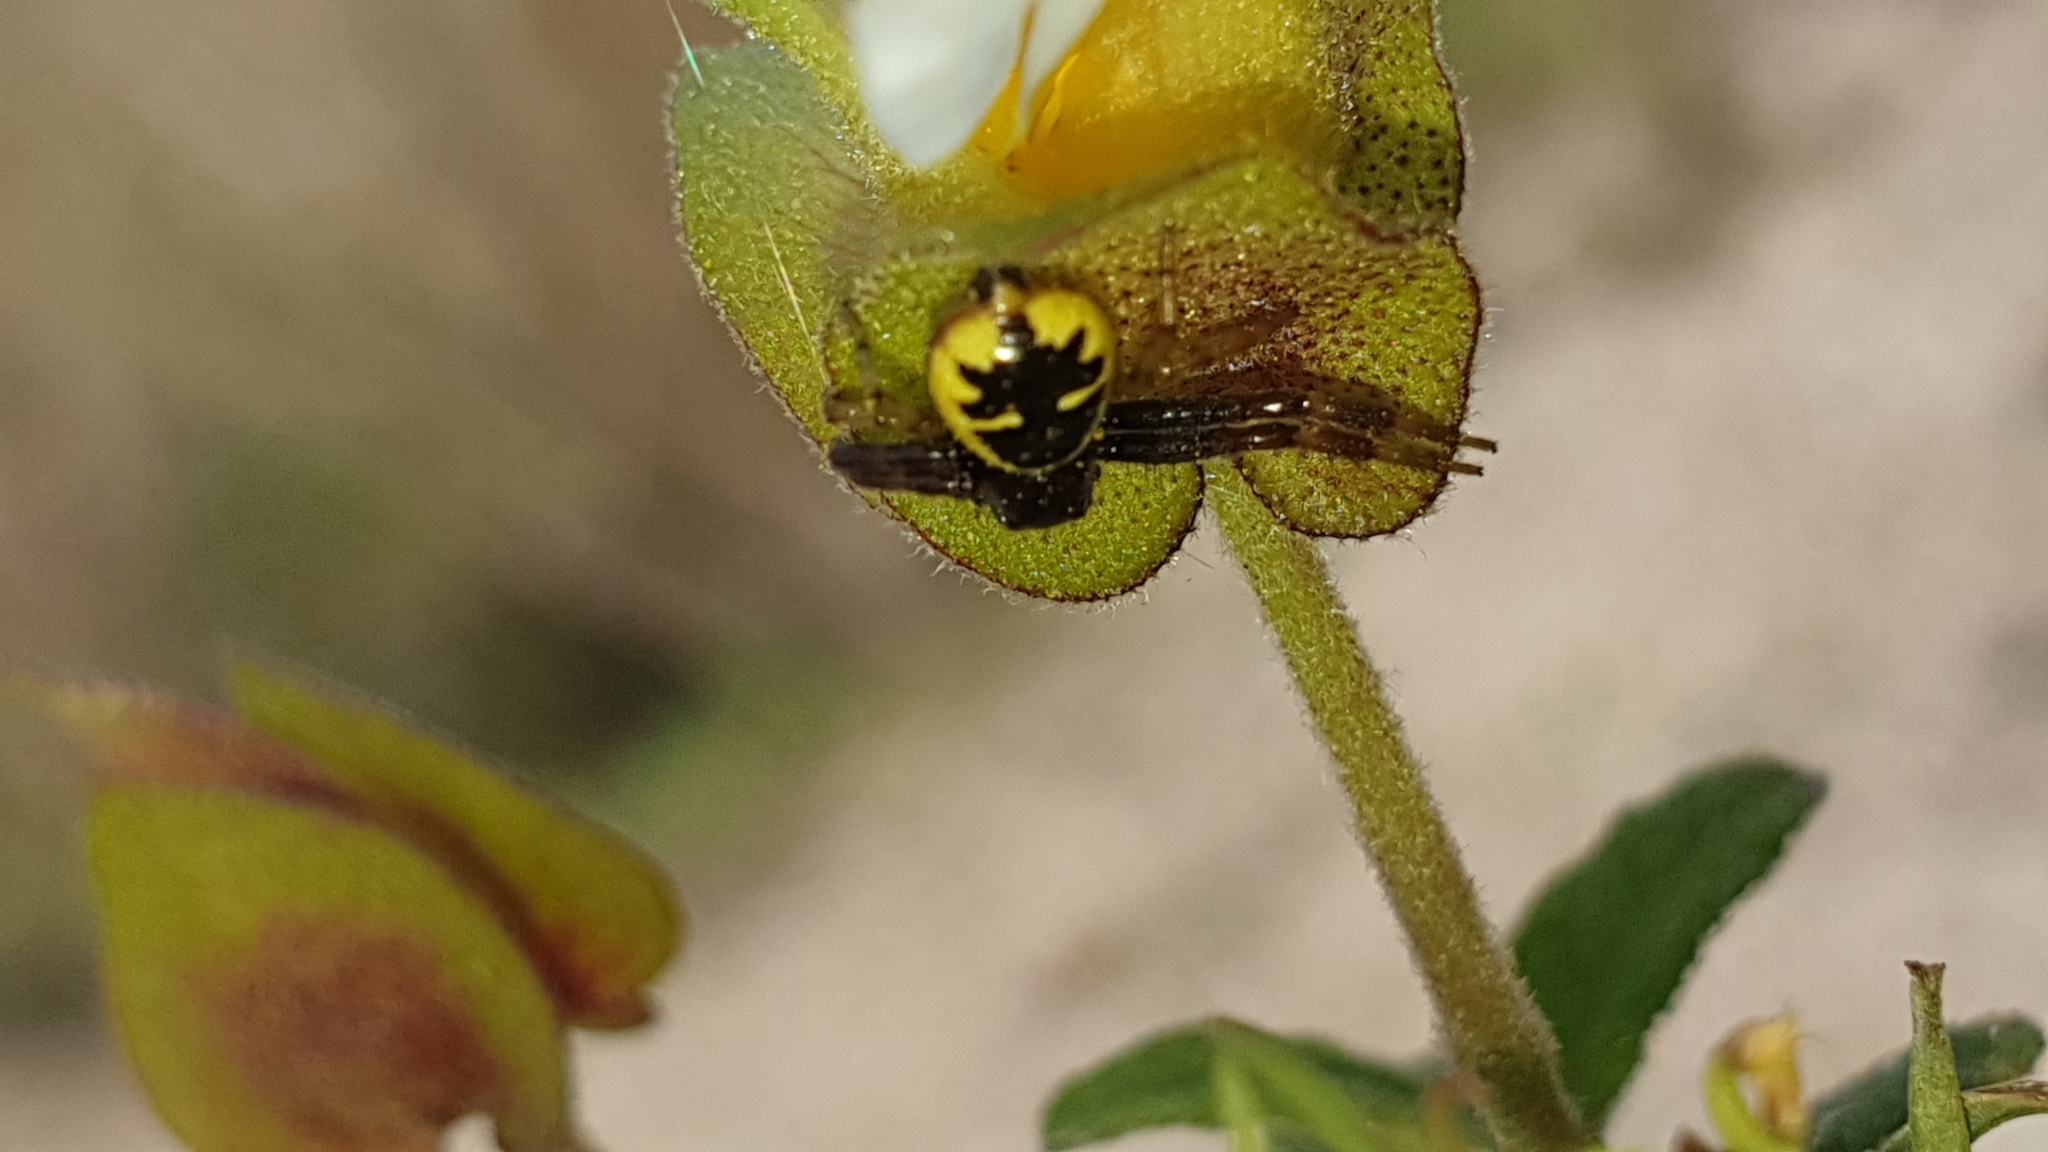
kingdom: Animalia
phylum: Arthropoda
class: Arachnida
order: Araneae
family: Thomisidae
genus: Synema
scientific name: Synema globosum
